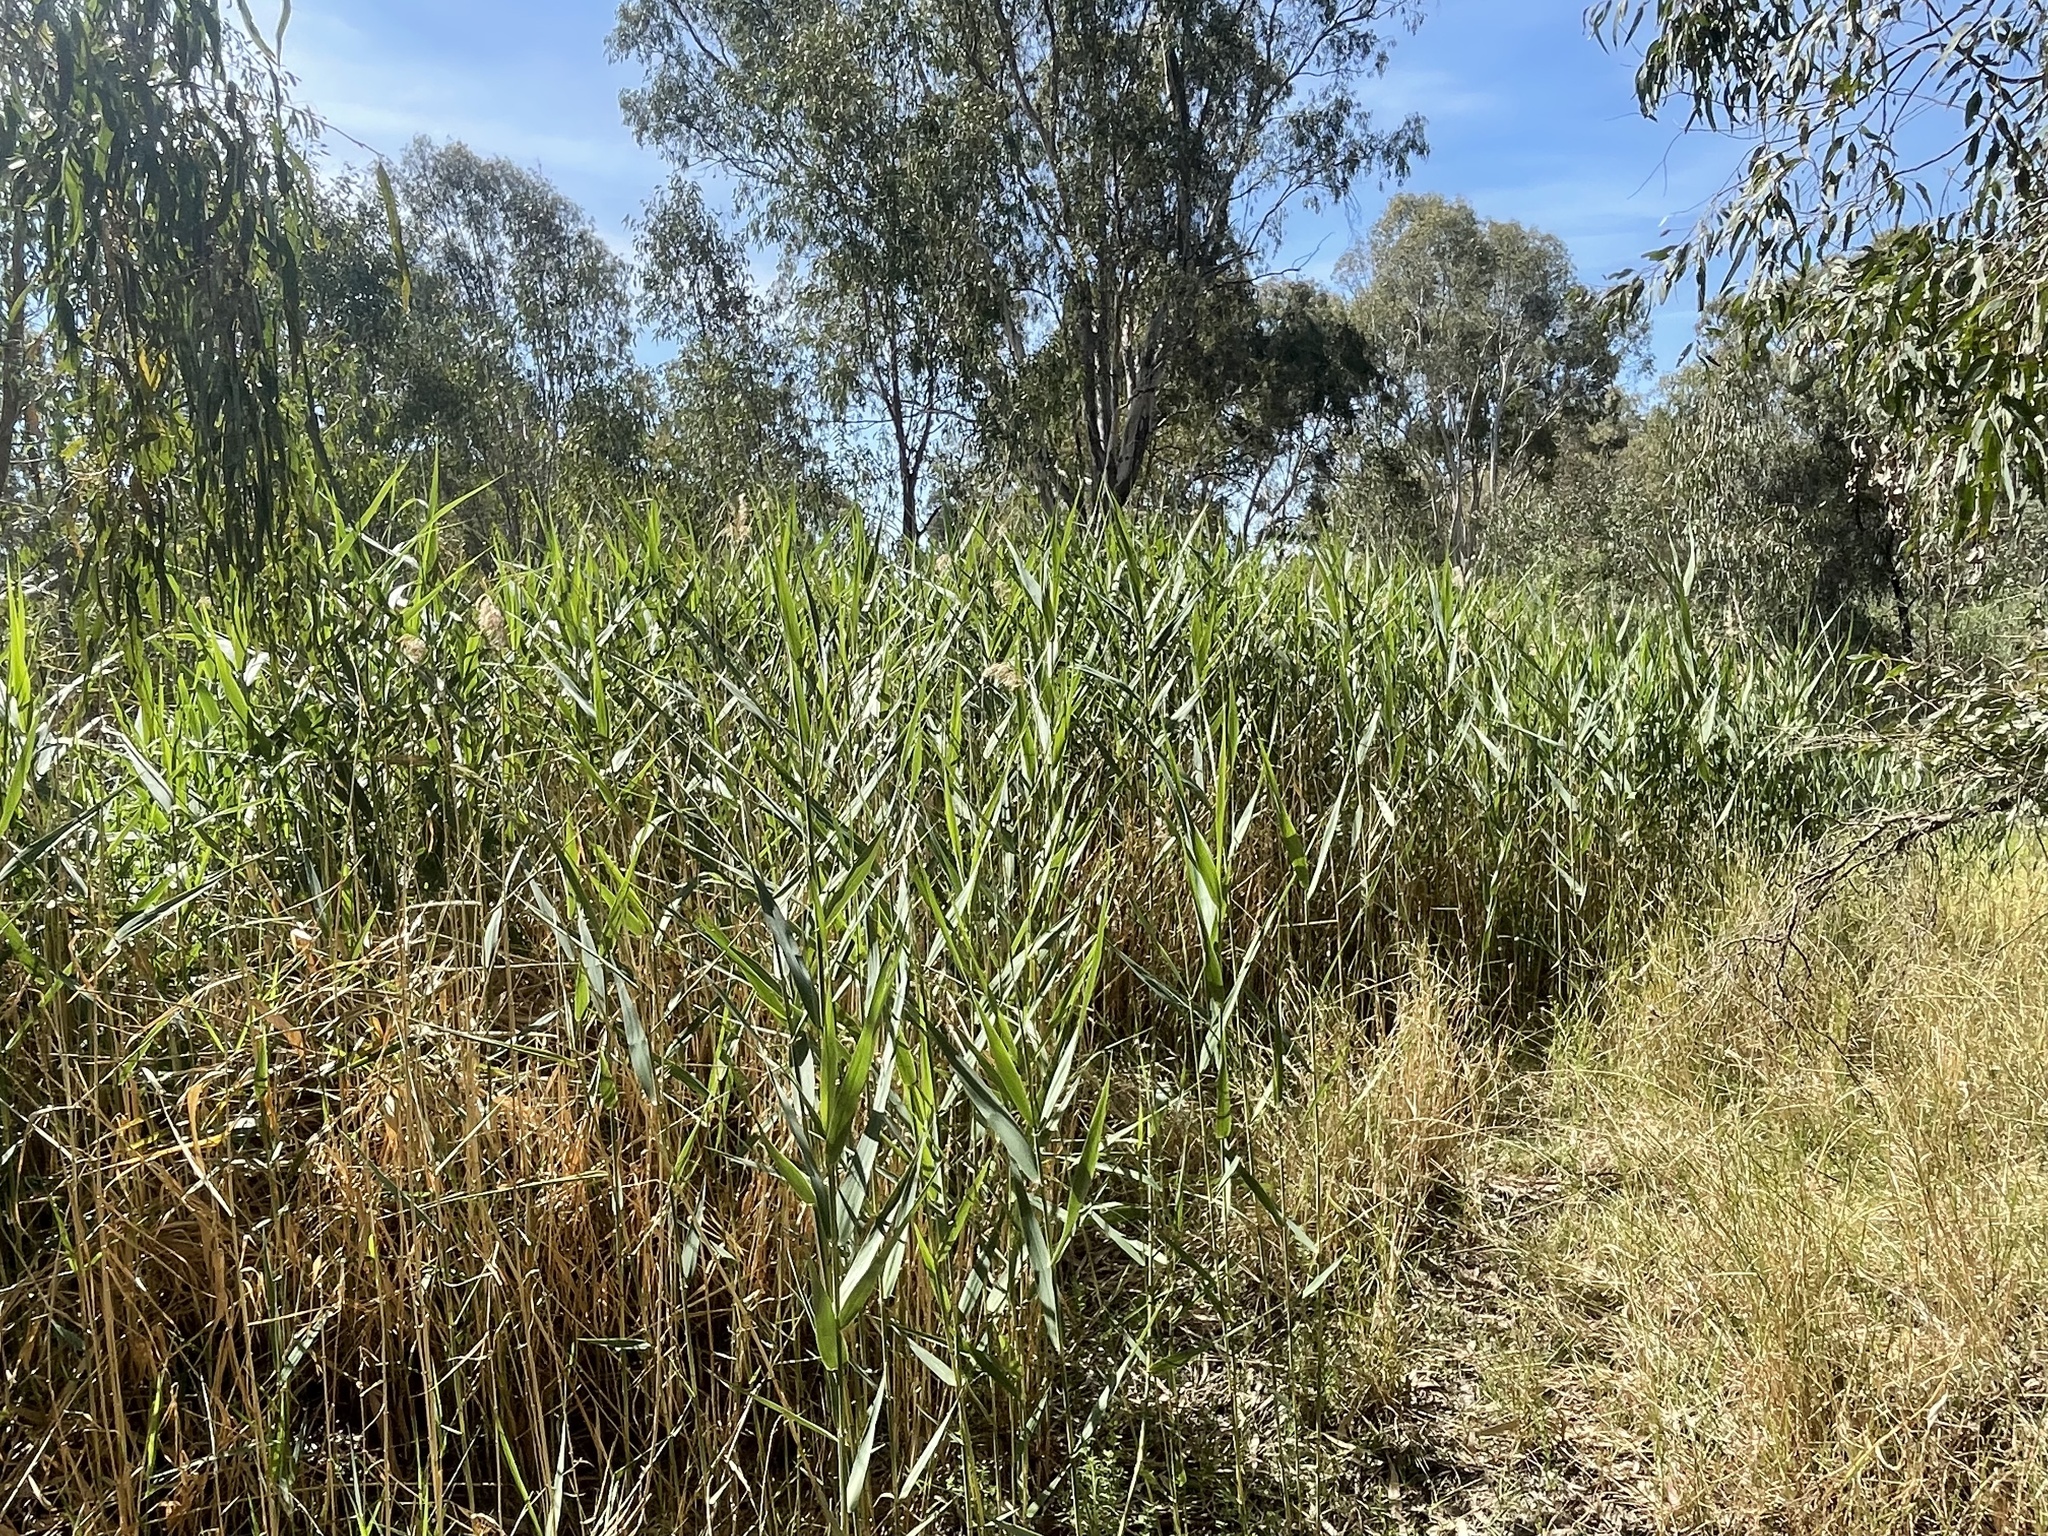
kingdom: Plantae
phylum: Tracheophyta
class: Liliopsida
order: Poales
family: Poaceae
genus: Phragmites
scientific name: Phragmites australis
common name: Common reed
